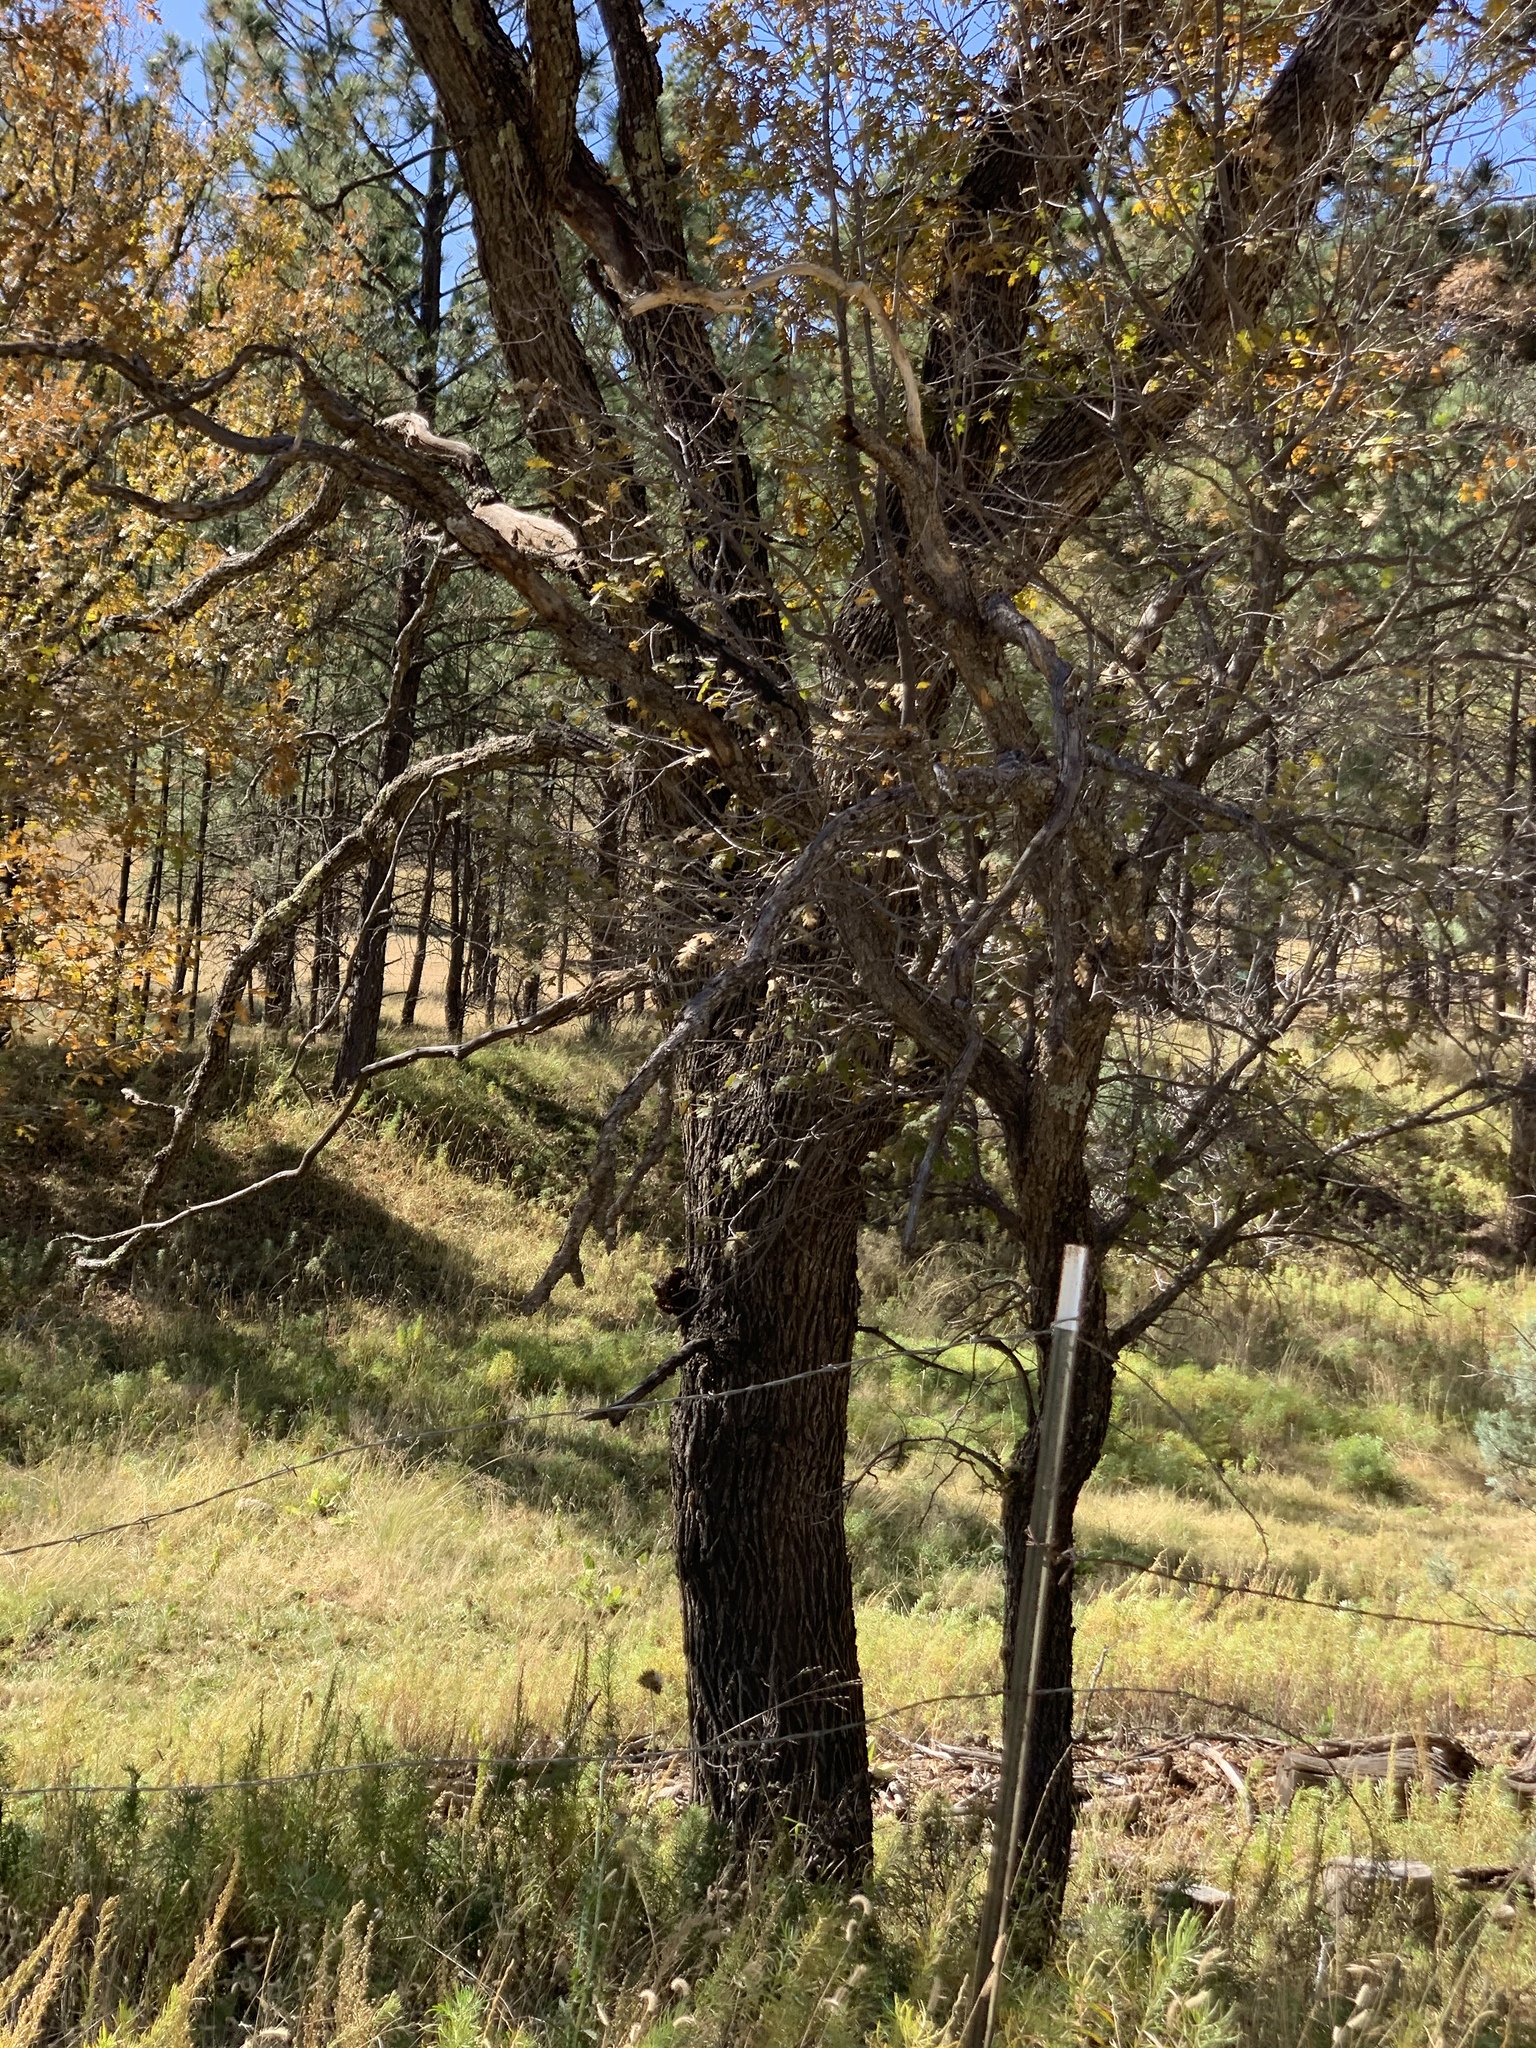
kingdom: Plantae
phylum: Tracheophyta
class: Magnoliopsida
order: Fagales
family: Fagaceae
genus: Quercus
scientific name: Quercus gambelii
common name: Gambel oak
